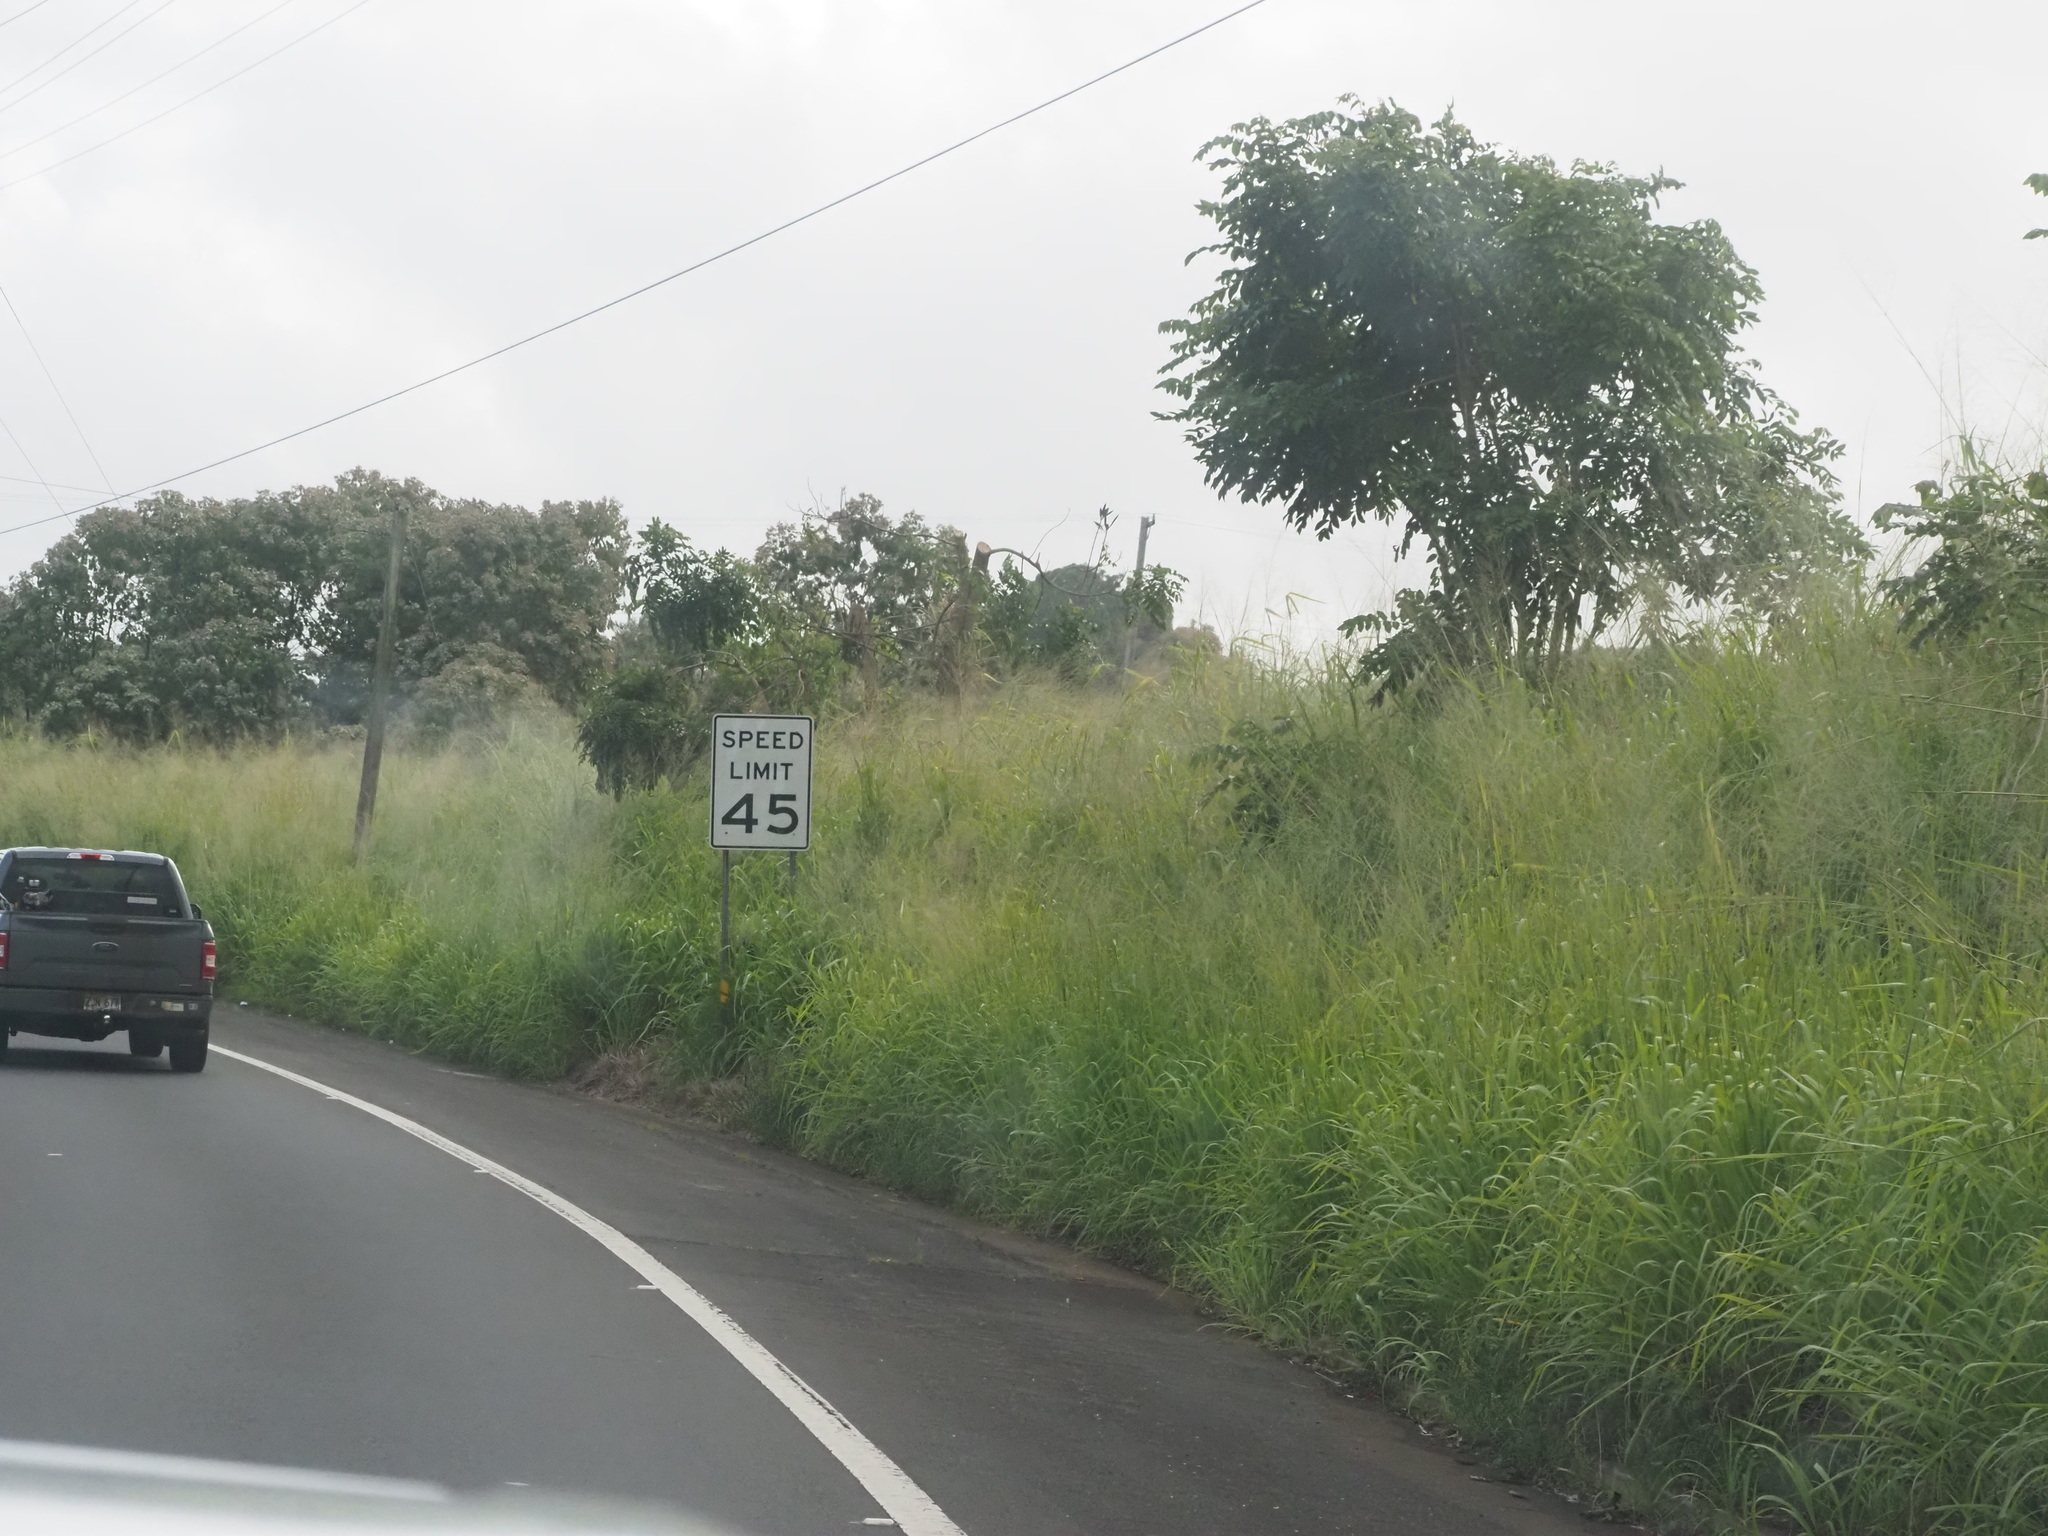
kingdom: Plantae
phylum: Tracheophyta
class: Liliopsida
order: Poales
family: Poaceae
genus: Megathyrsus
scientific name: Megathyrsus maximus
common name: Guineagrass
